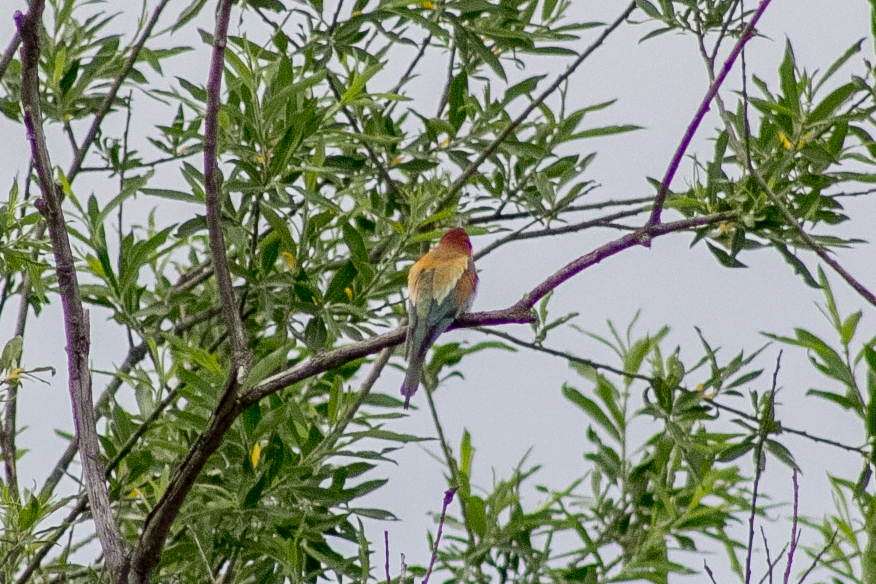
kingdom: Animalia
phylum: Chordata
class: Aves
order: Coraciiformes
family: Meropidae
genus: Merops
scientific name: Merops apiaster
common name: European bee-eater
